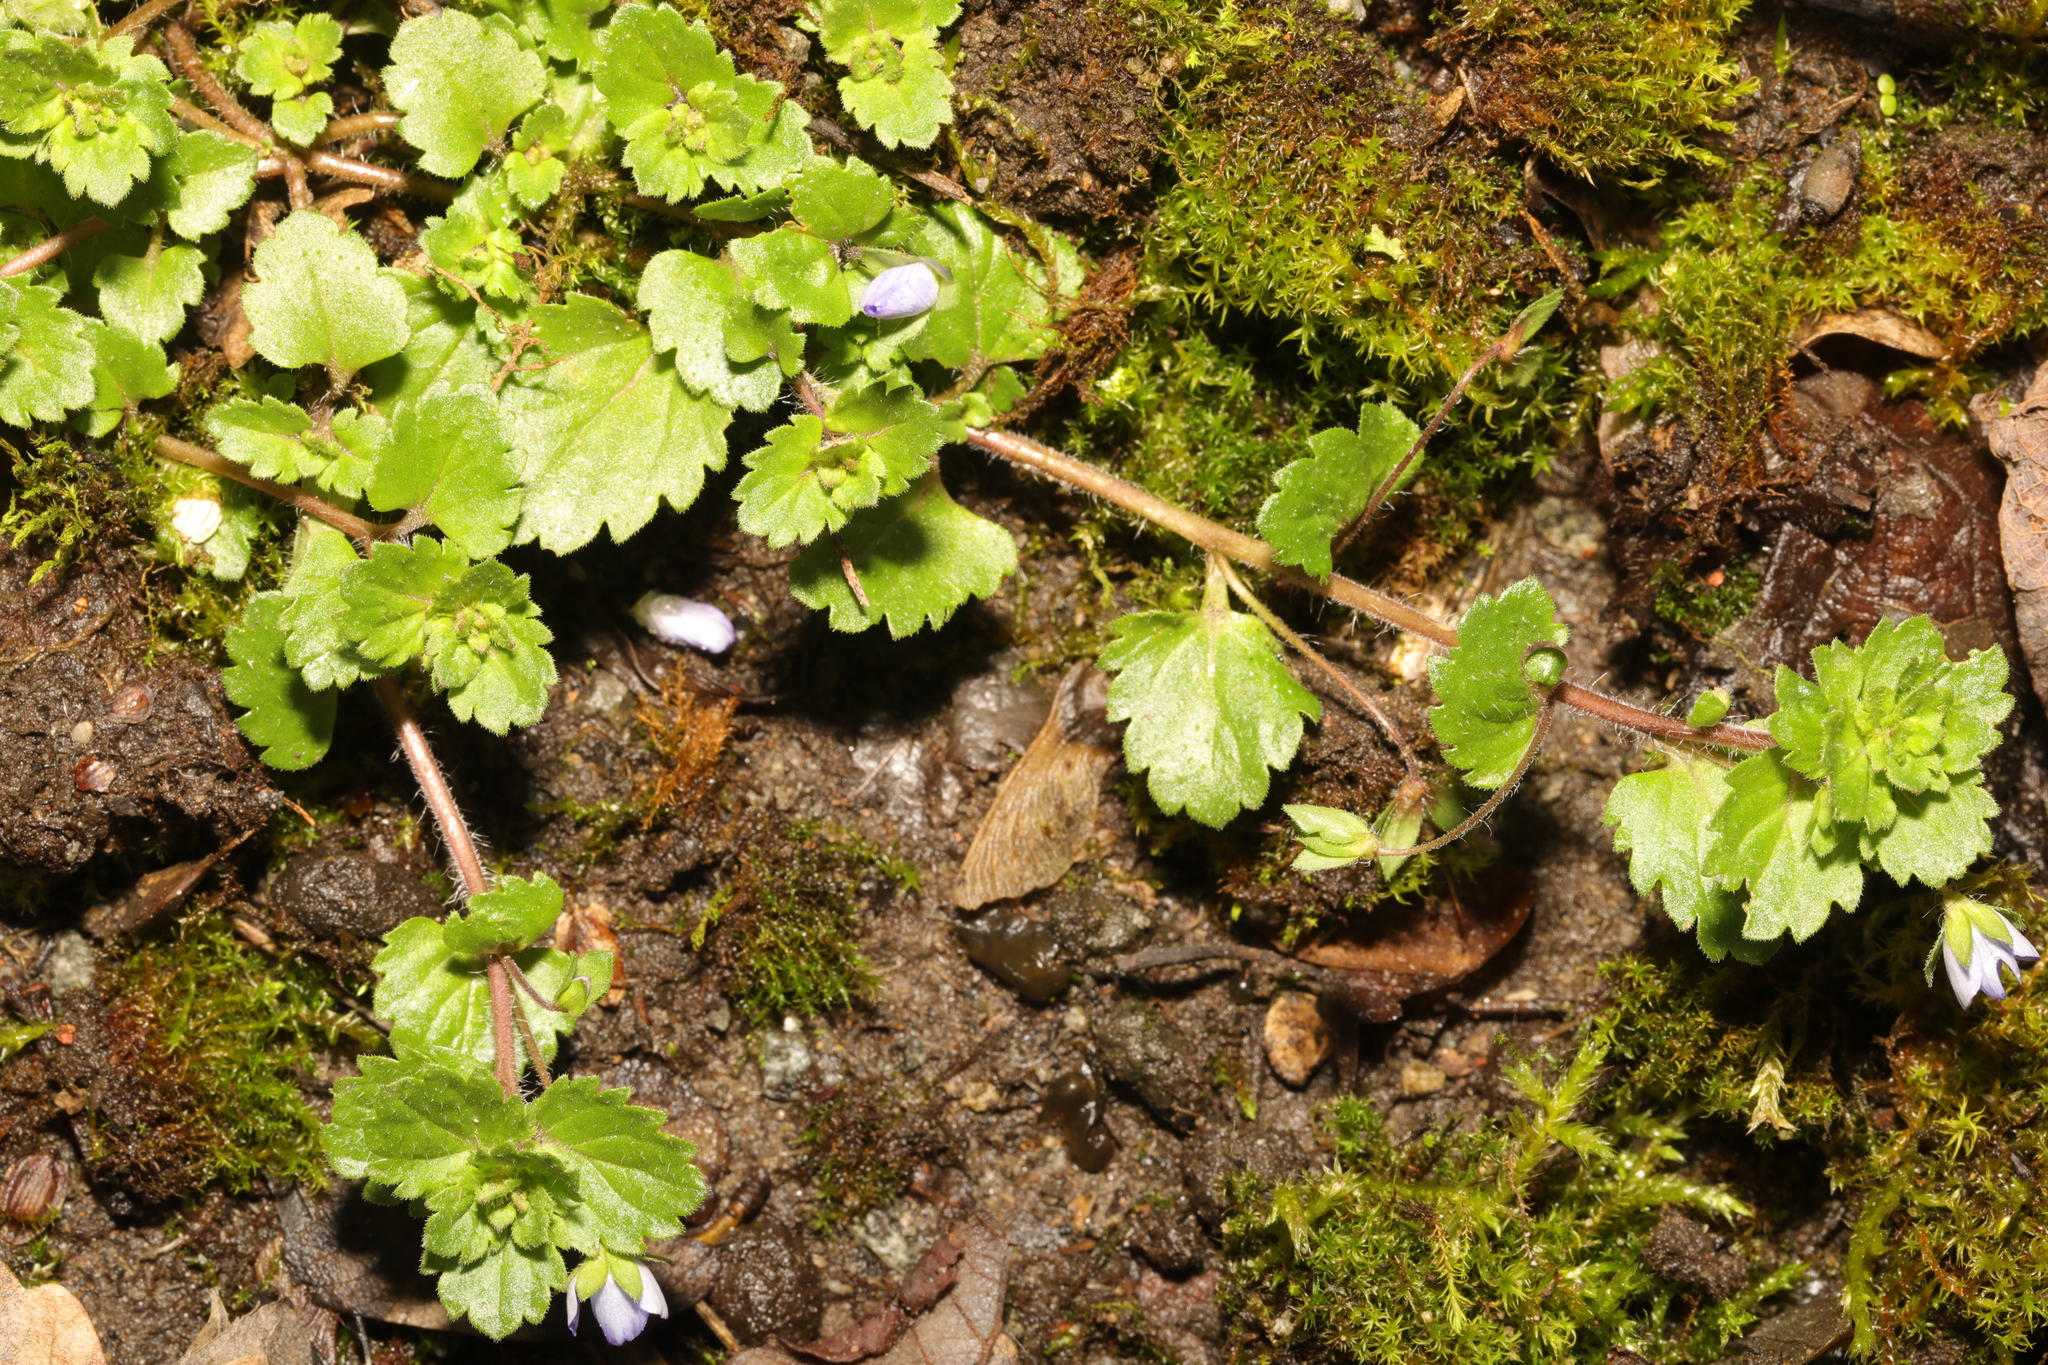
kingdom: Plantae
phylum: Tracheophyta
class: Magnoliopsida
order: Lamiales
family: Plantaginaceae
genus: Veronica
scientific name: Veronica persica
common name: Common field-speedwell
